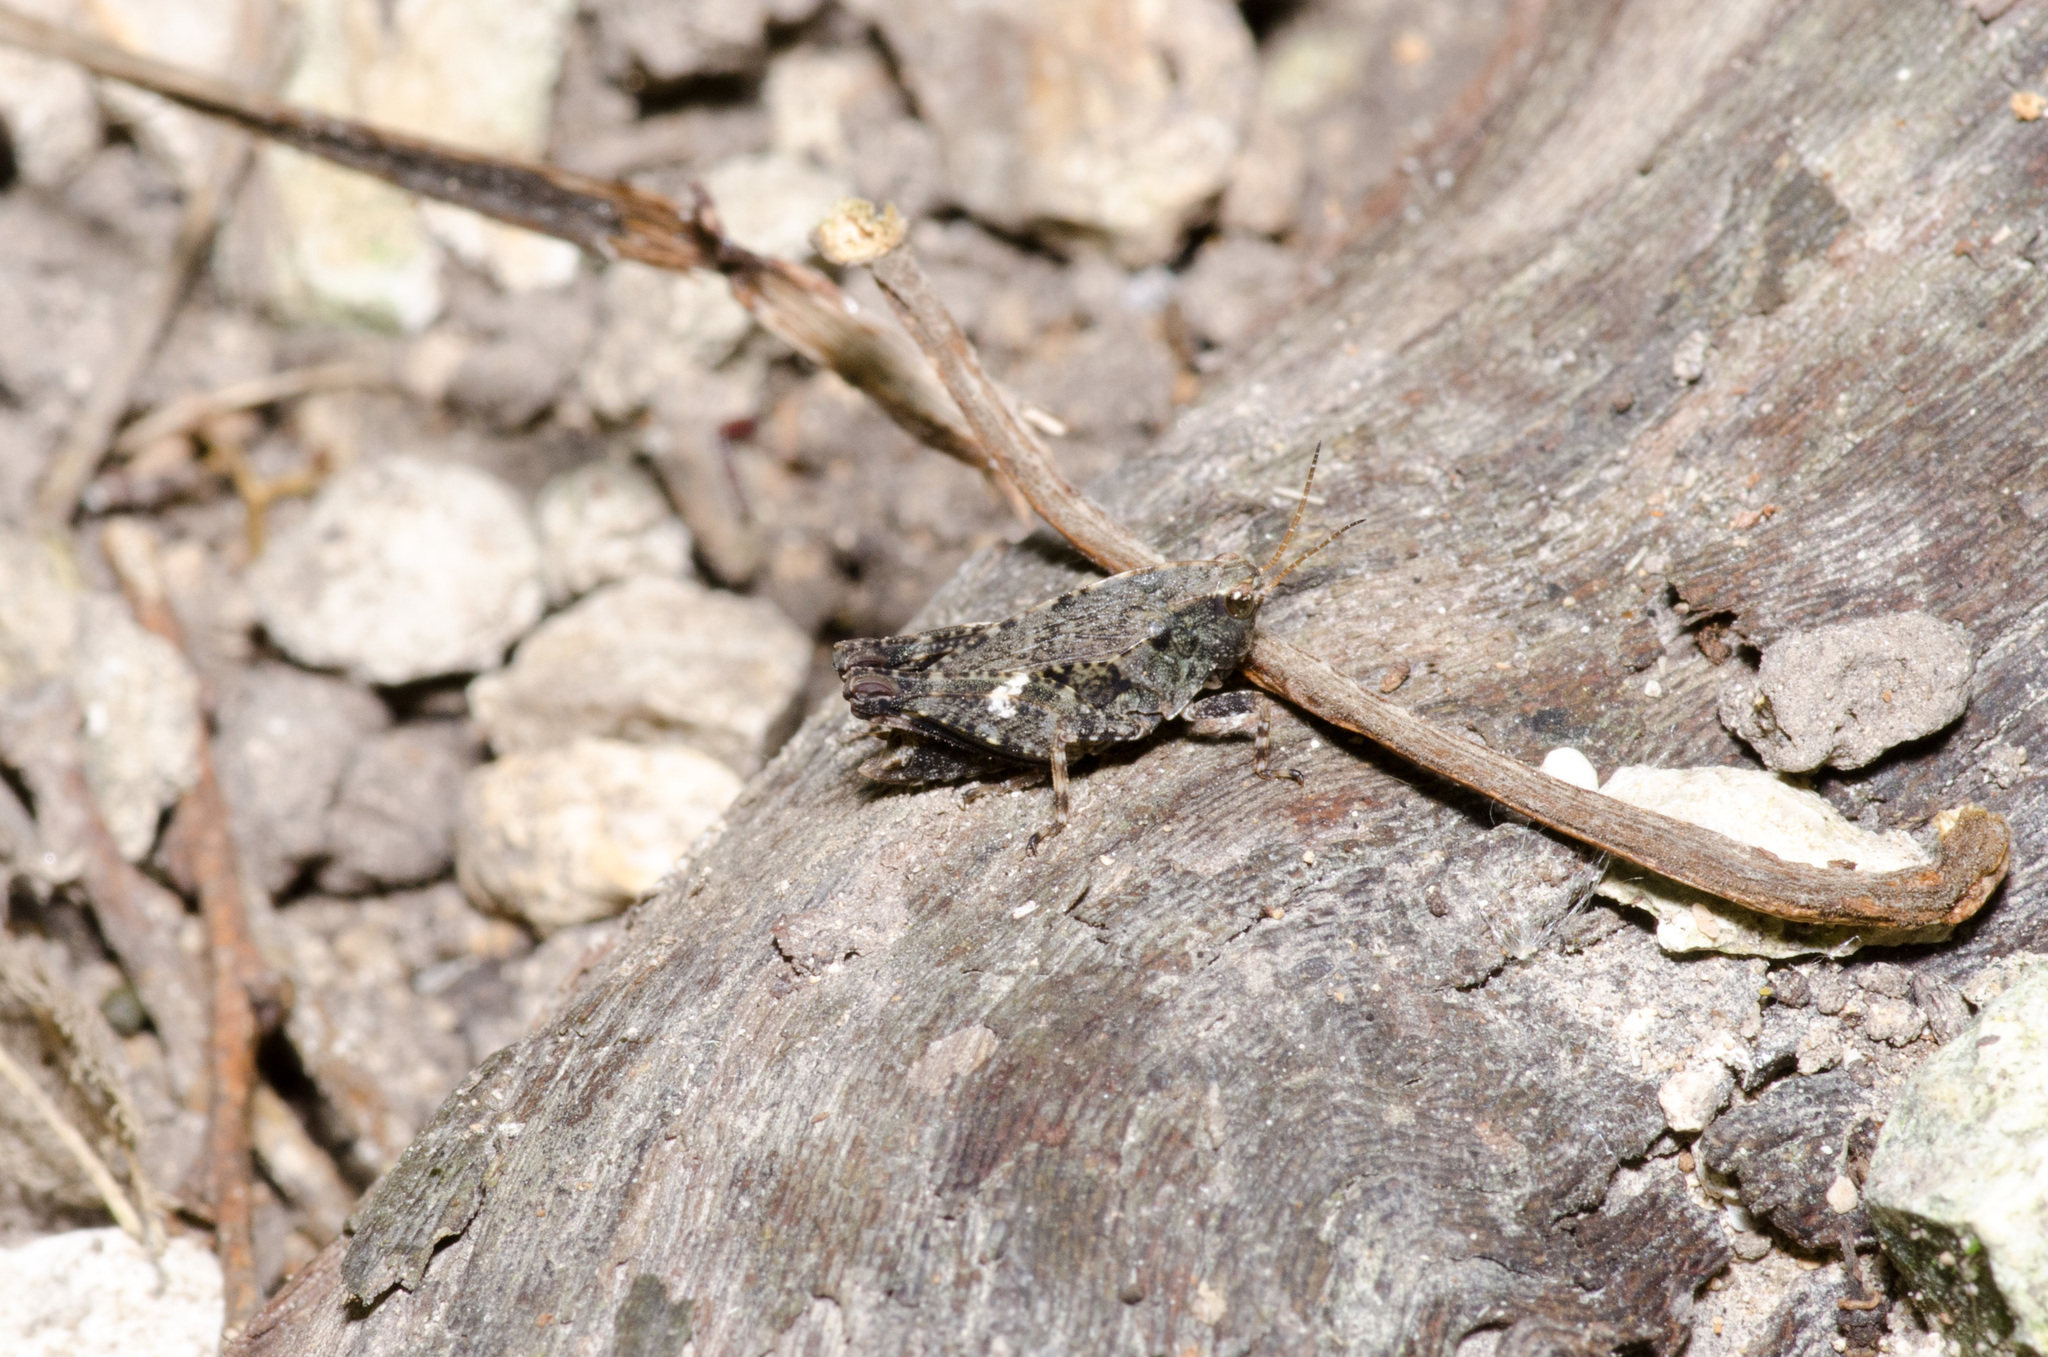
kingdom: Animalia
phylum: Arthropoda
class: Insecta
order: Orthoptera
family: Tetrigidae
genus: Tettigidea
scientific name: Tettigidea laterale
